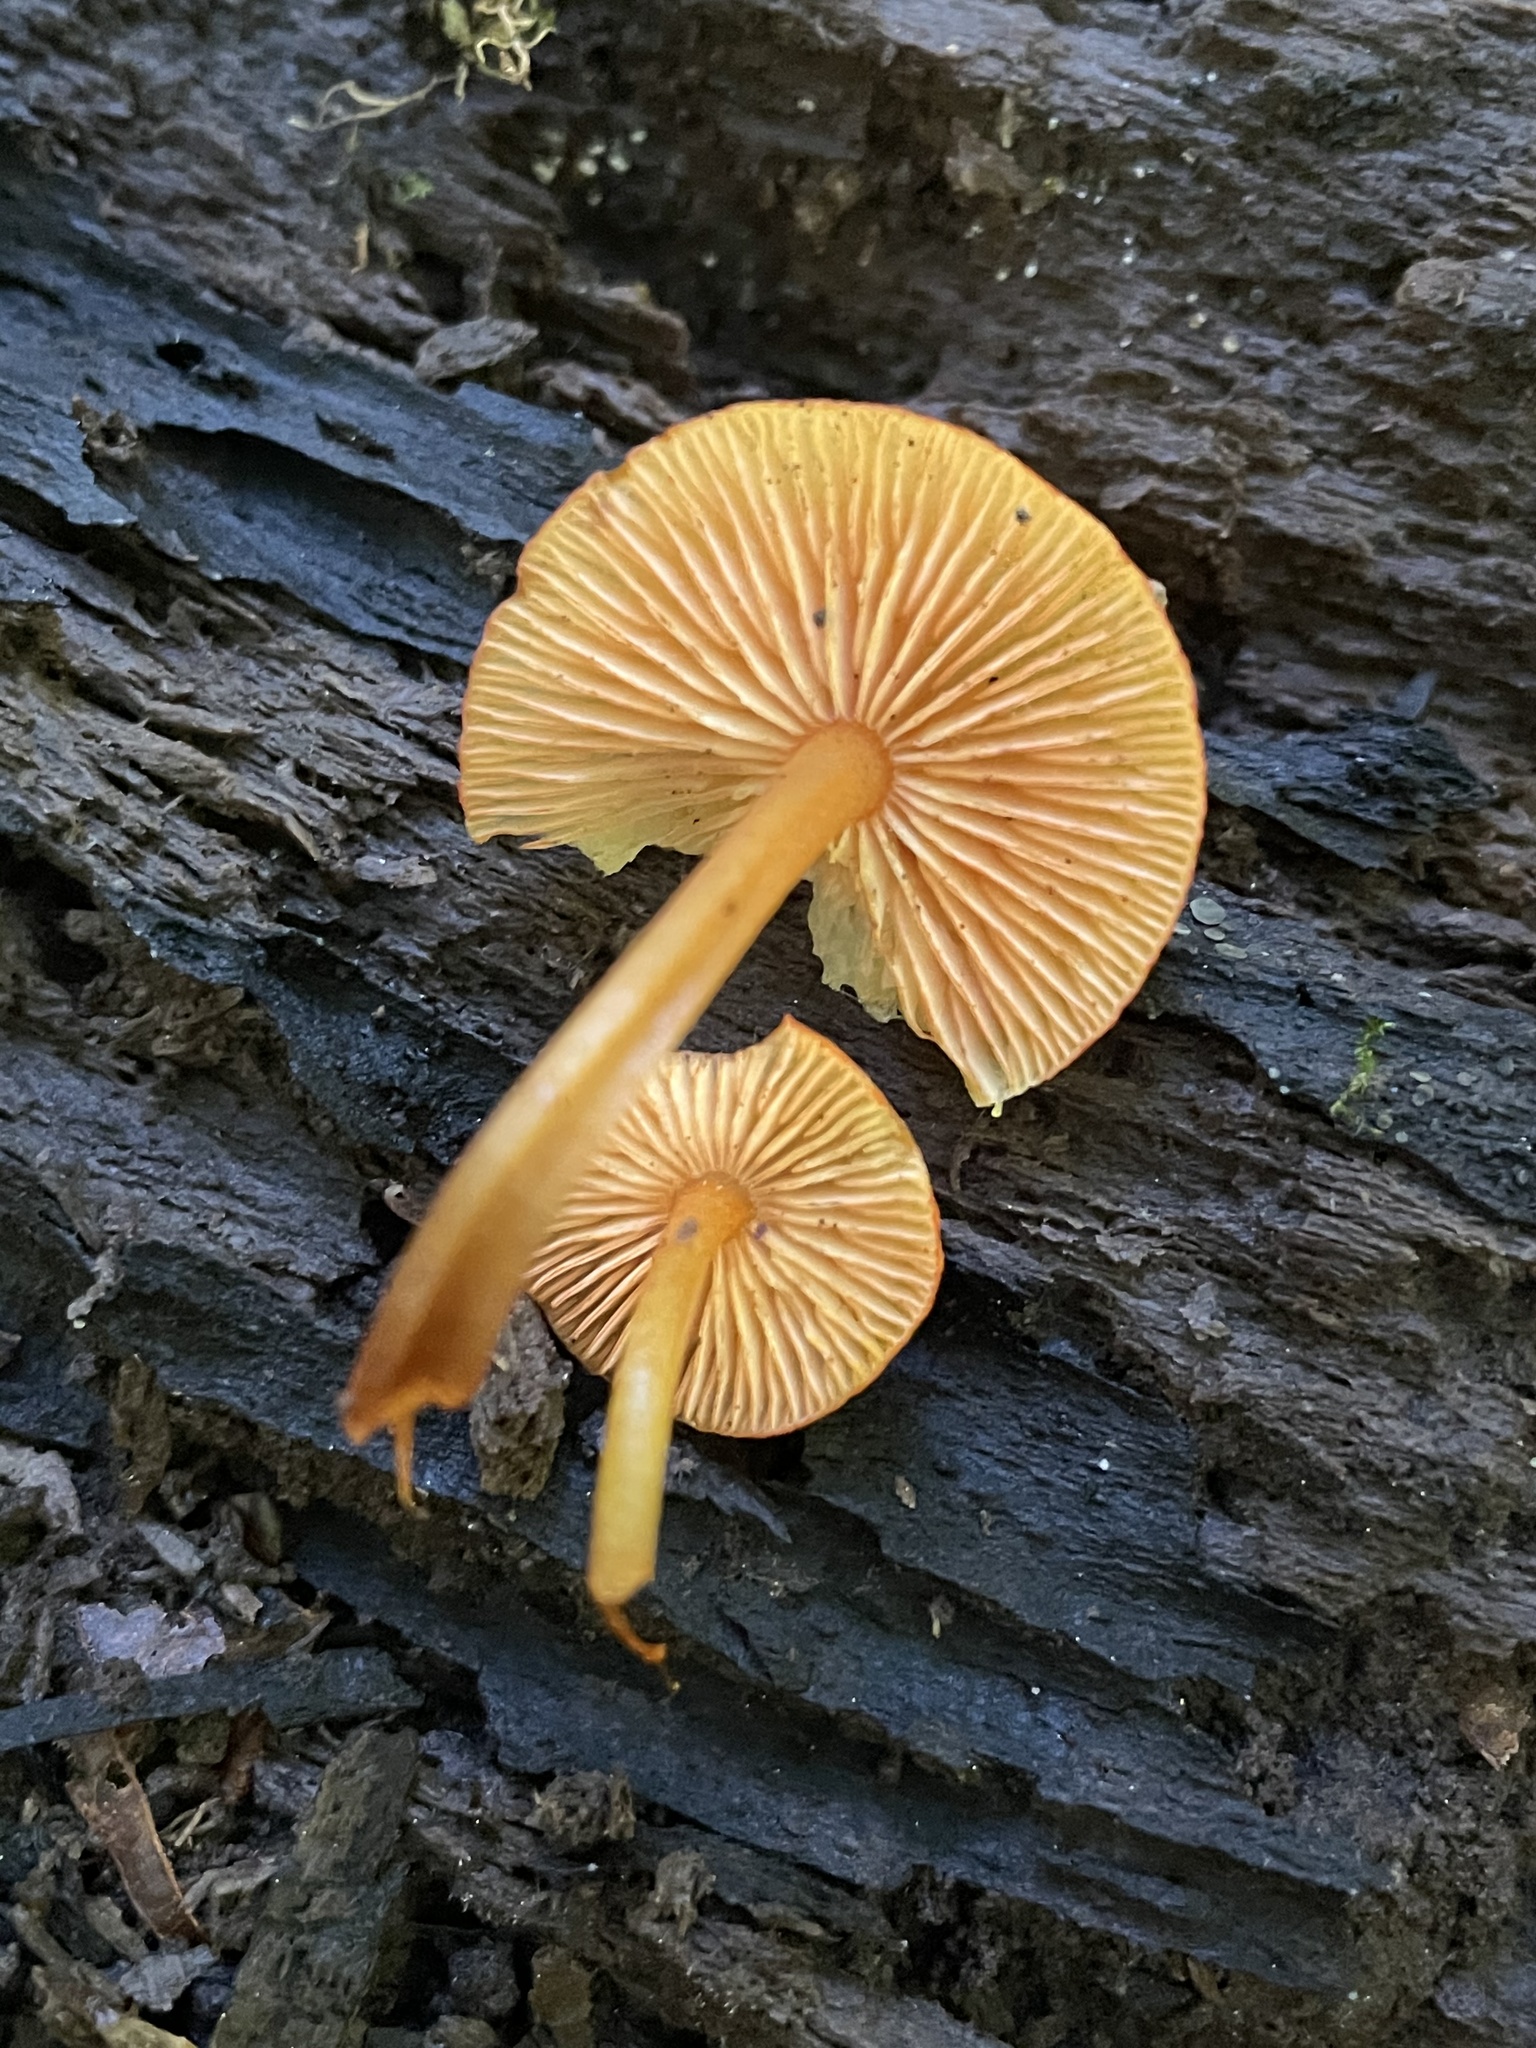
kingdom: Fungi
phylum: Basidiomycota
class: Agaricomycetes
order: Agaricales
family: Mycenaceae
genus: Mycena
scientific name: Mycena leaiana
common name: Orange mycena
